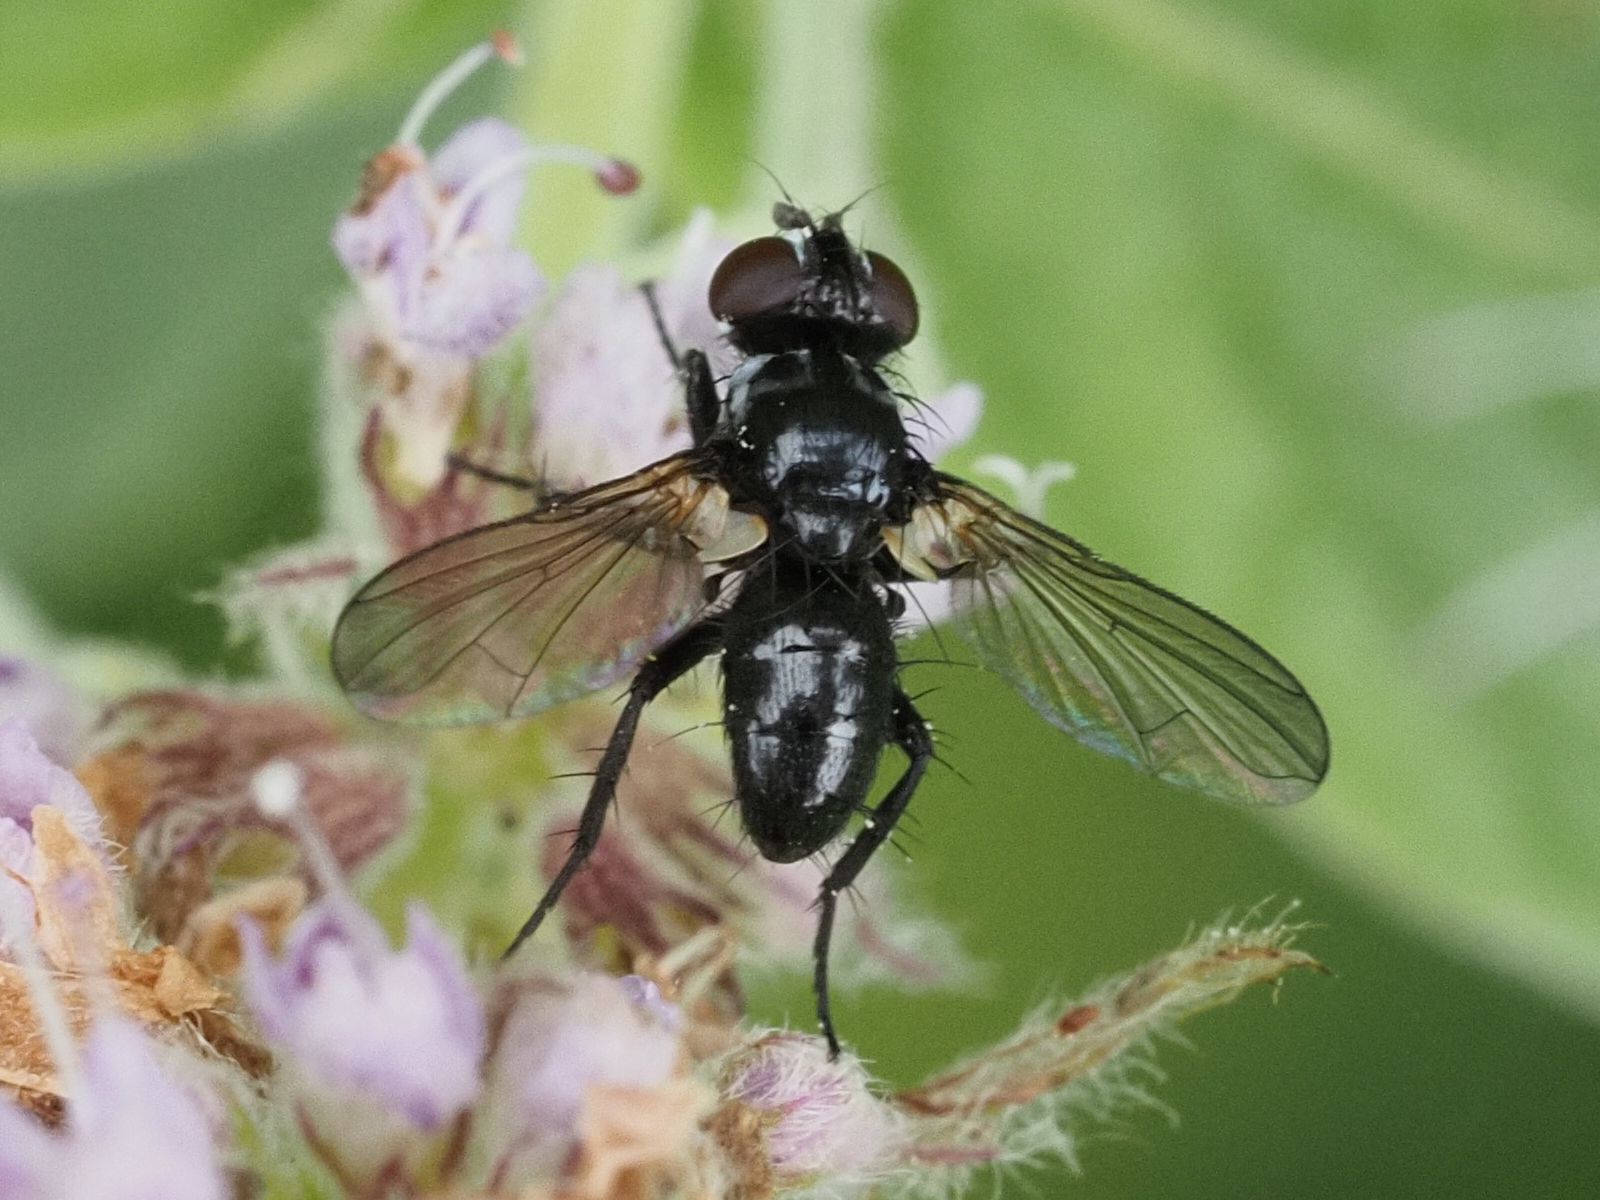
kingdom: Animalia
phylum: Arthropoda
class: Insecta
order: Diptera
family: Tachinidae
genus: Phania
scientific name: Phania funesta
